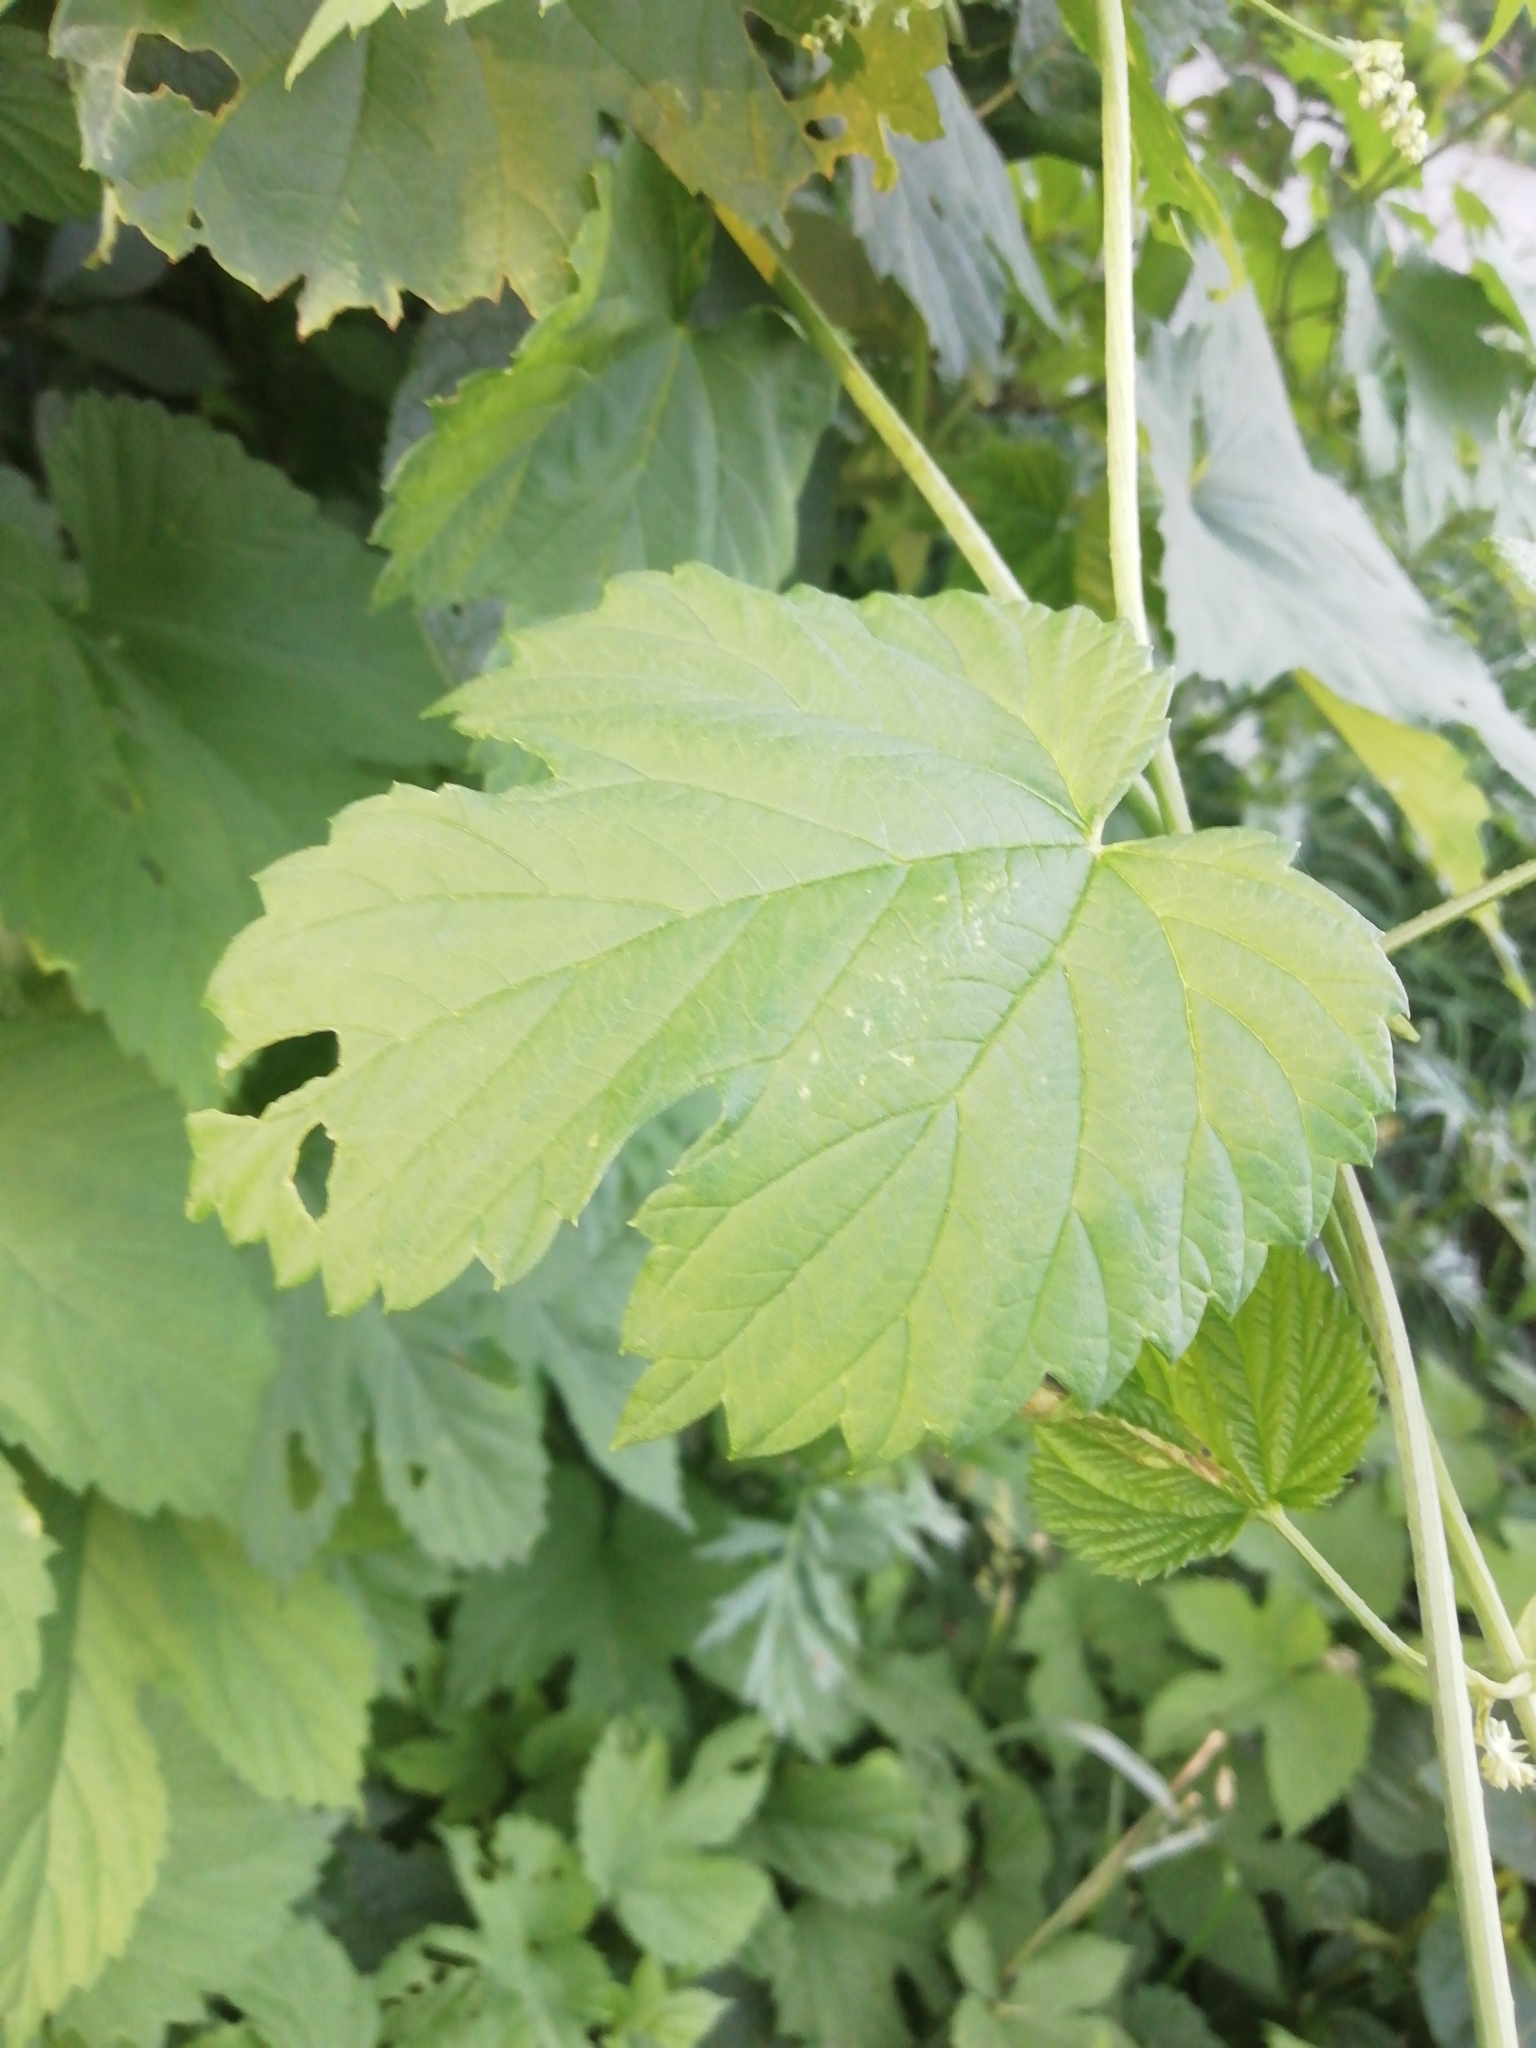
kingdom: Plantae
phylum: Tracheophyta
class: Magnoliopsida
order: Rosales
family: Cannabaceae
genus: Humulus
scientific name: Humulus lupulus
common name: Hop
